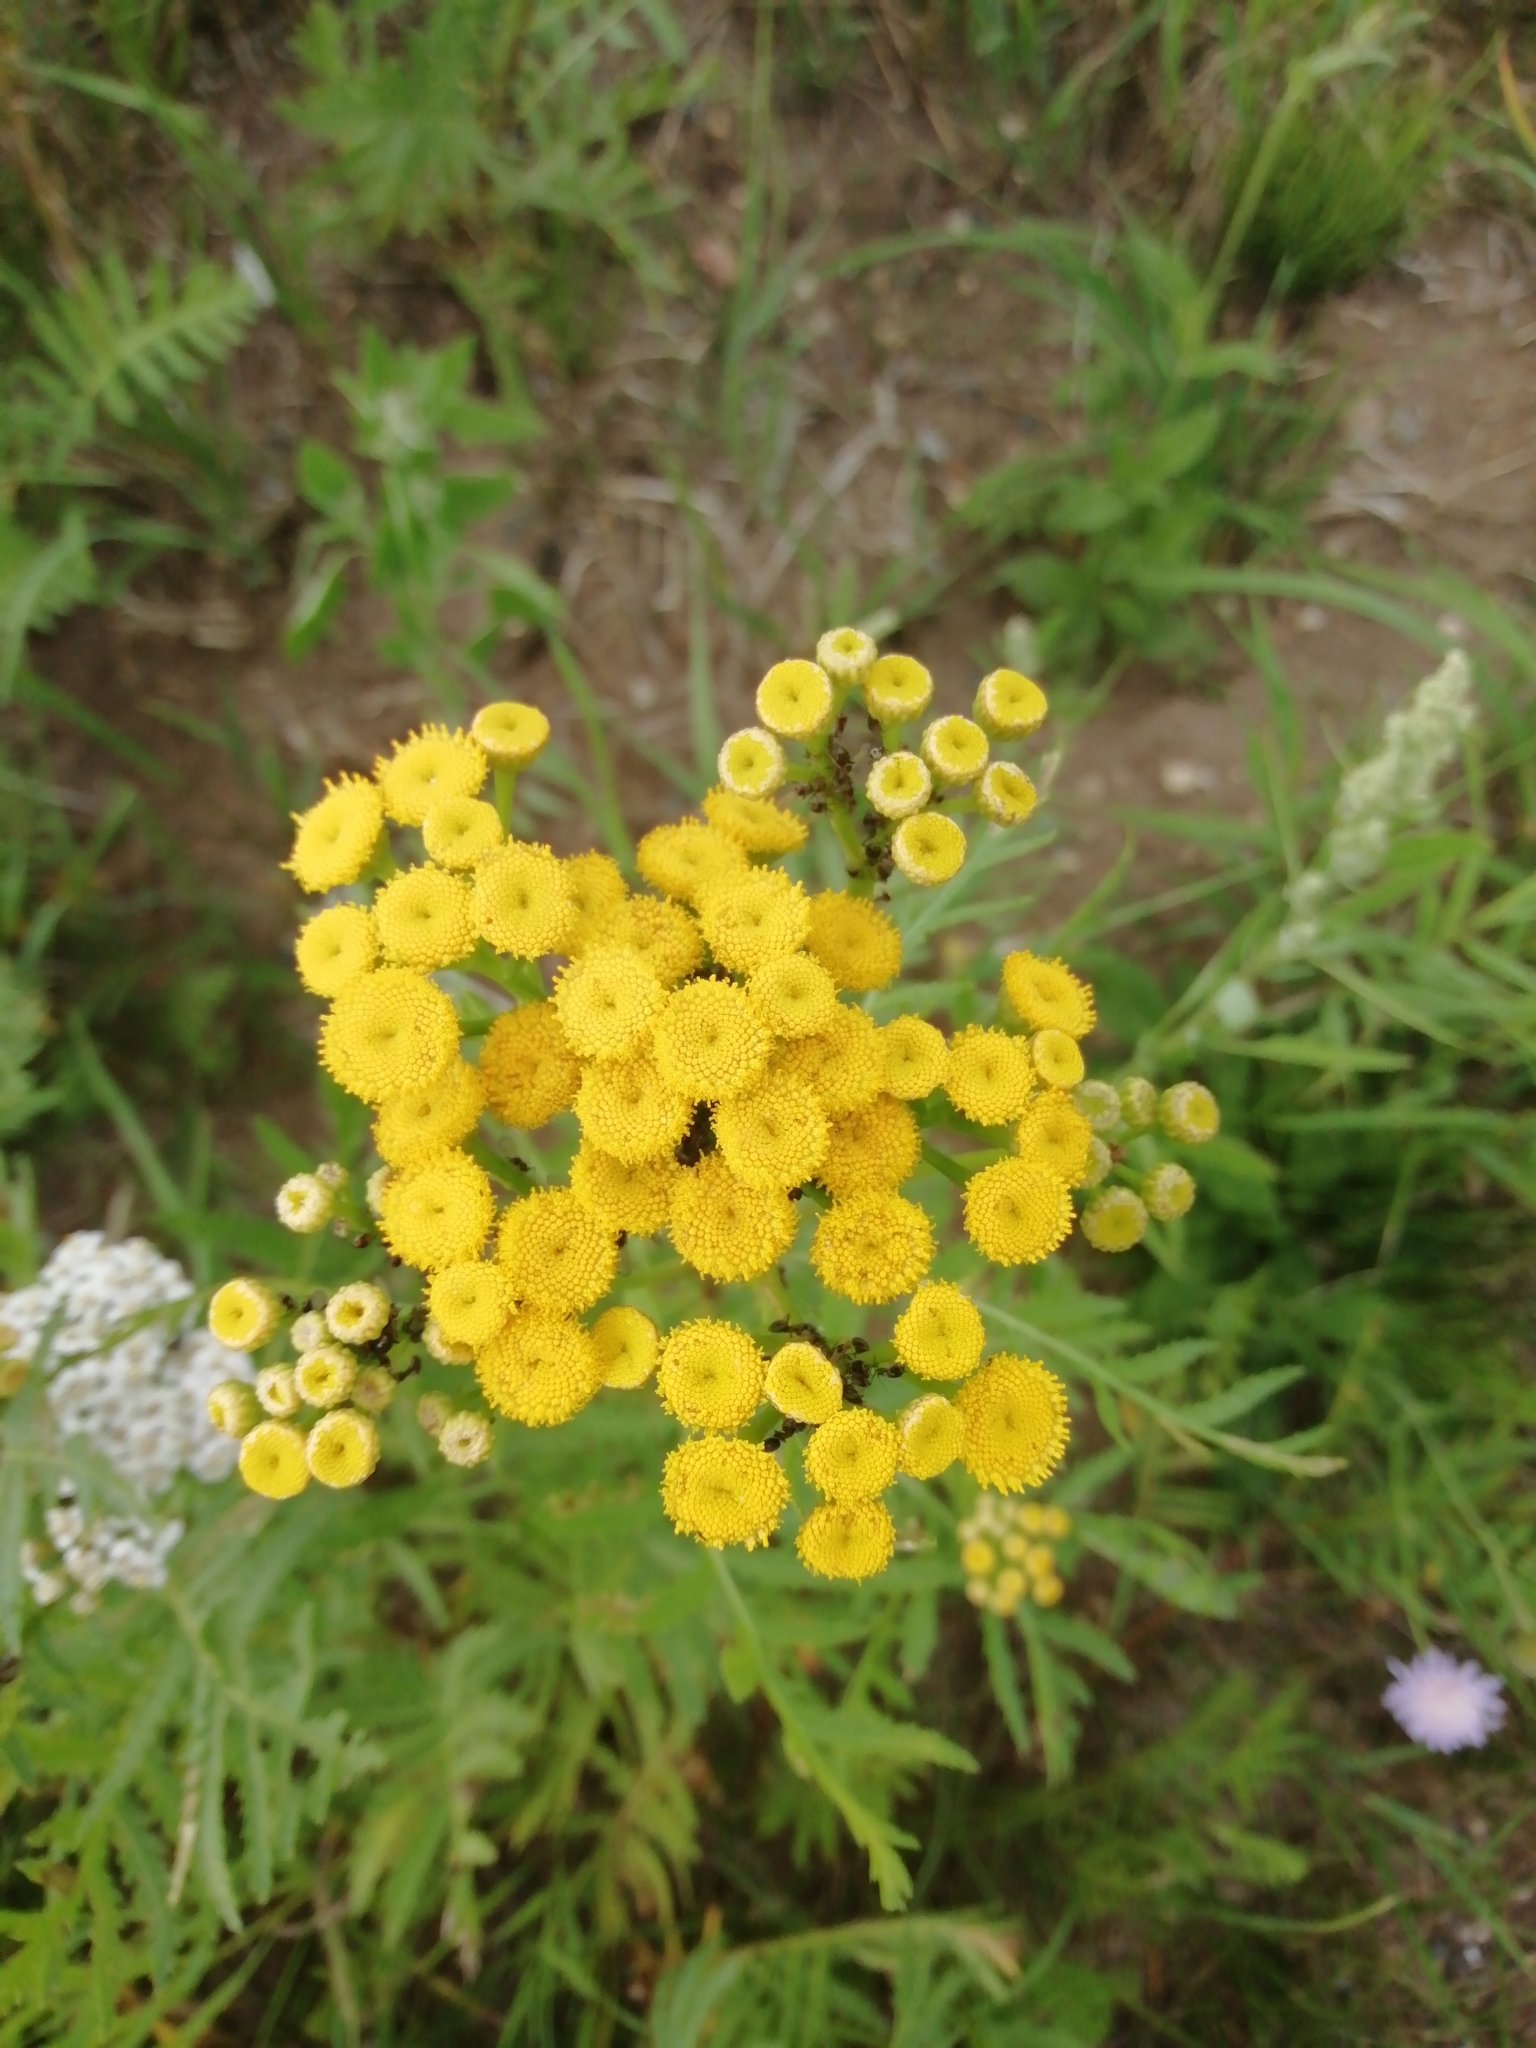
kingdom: Plantae
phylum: Tracheophyta
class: Magnoliopsida
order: Asterales
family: Asteraceae
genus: Tanacetum
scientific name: Tanacetum vulgare
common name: Common tansy
